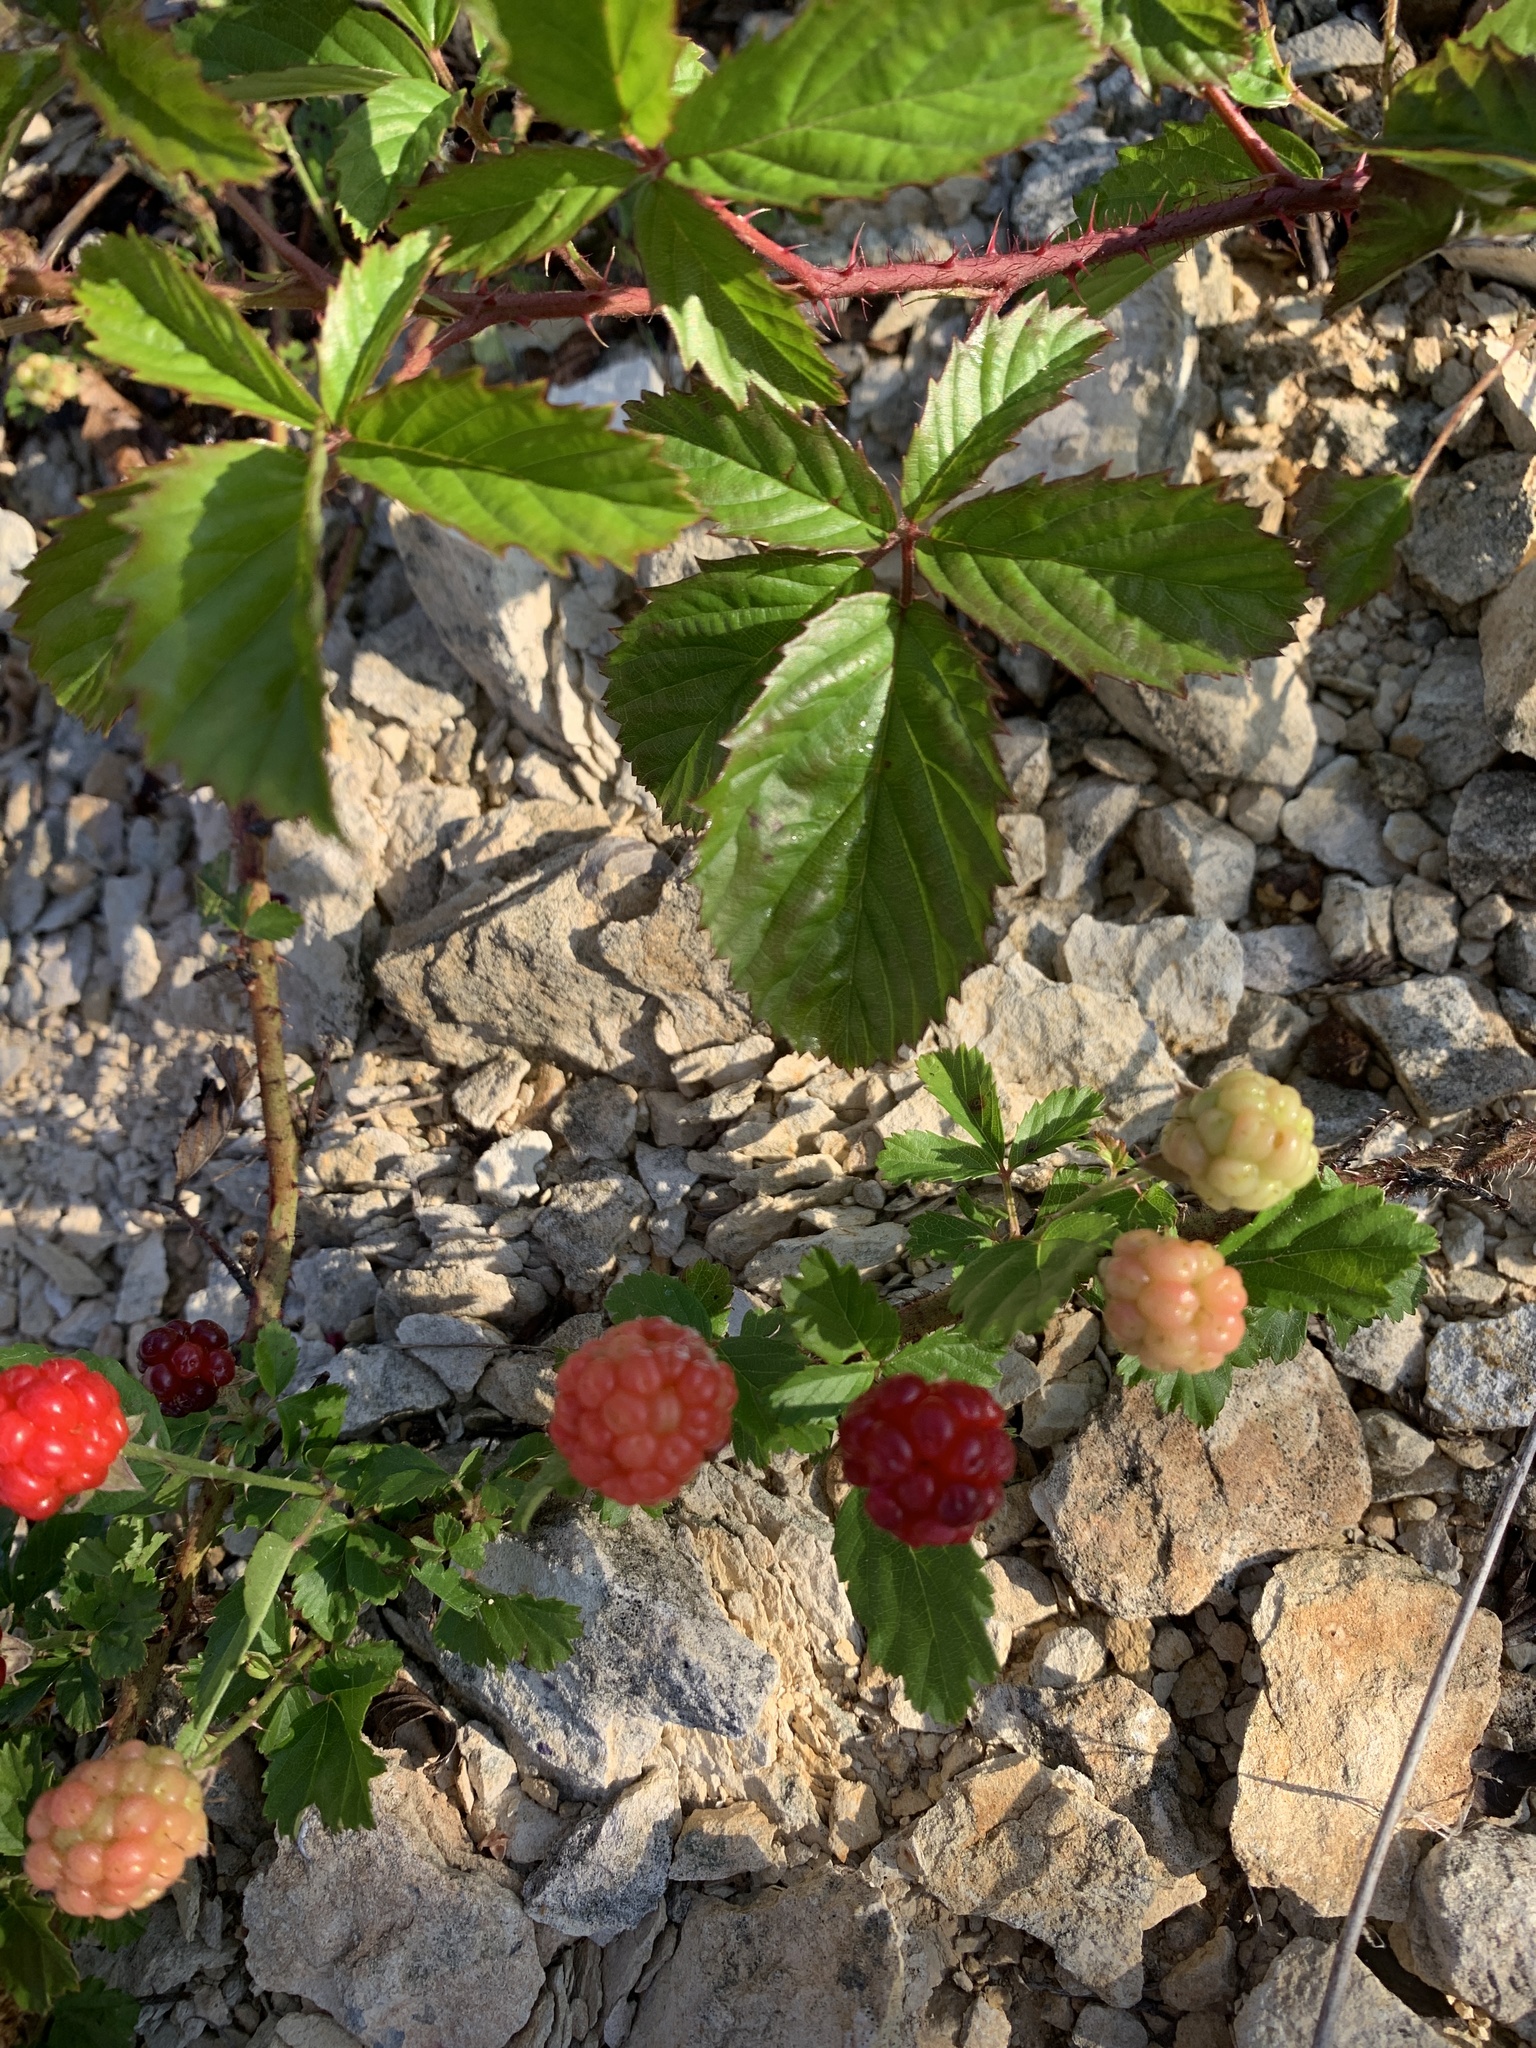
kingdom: Plantae
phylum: Tracheophyta
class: Magnoliopsida
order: Rosales
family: Rosaceae
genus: Rubus
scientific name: Rubus trivialis
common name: Southern dewberry
